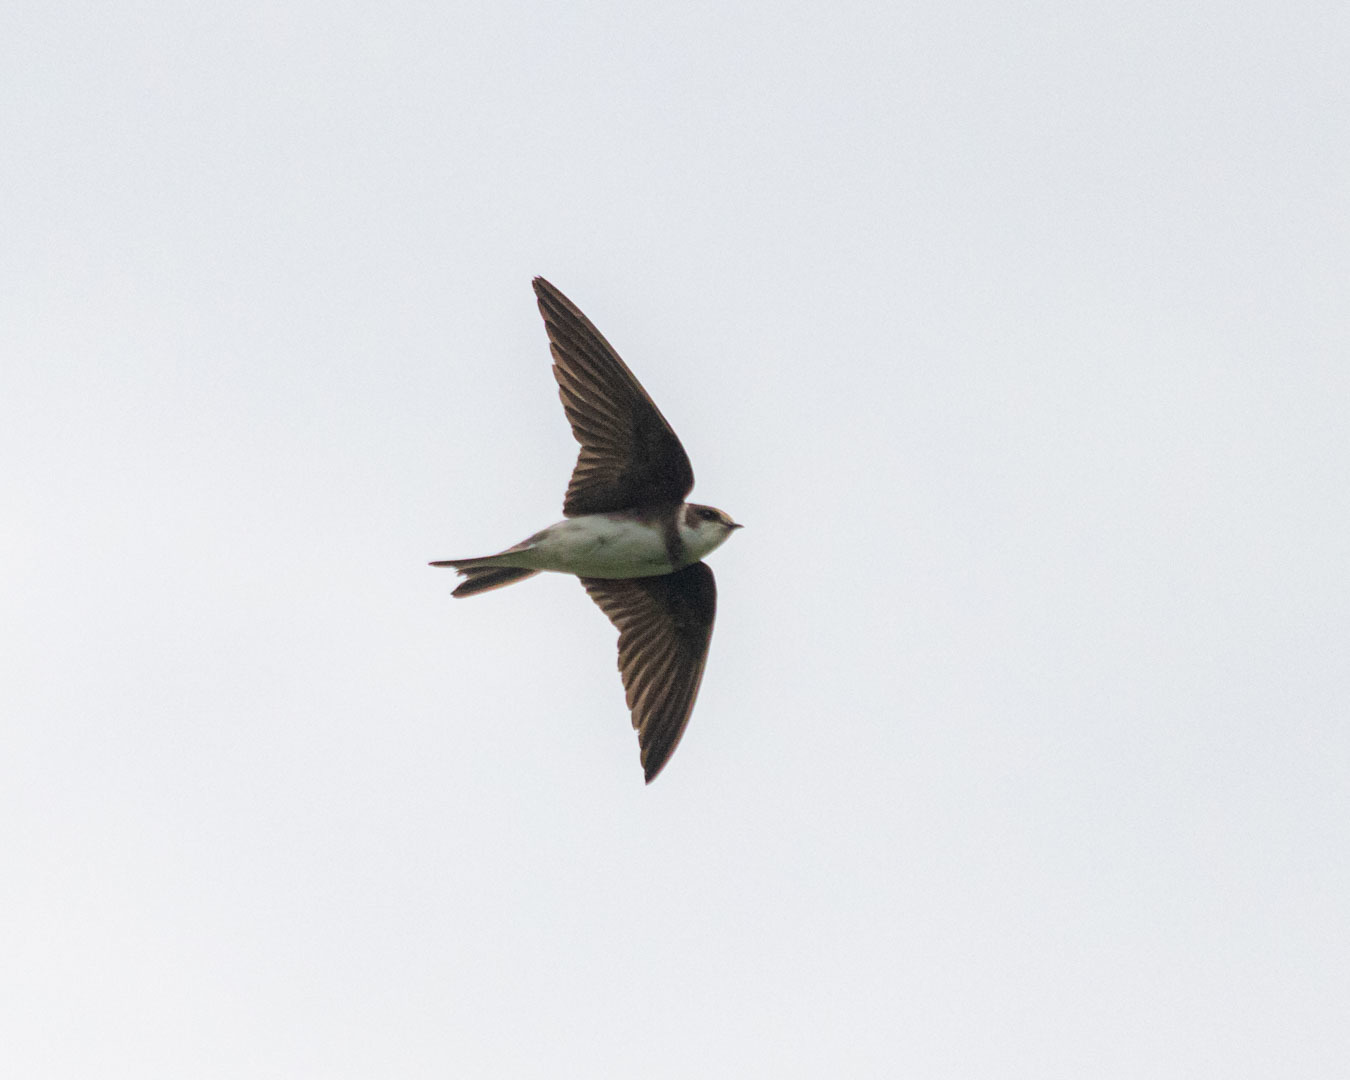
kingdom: Animalia
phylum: Chordata
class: Aves
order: Passeriformes
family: Hirundinidae
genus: Riparia
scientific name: Riparia riparia
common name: Sand martin
